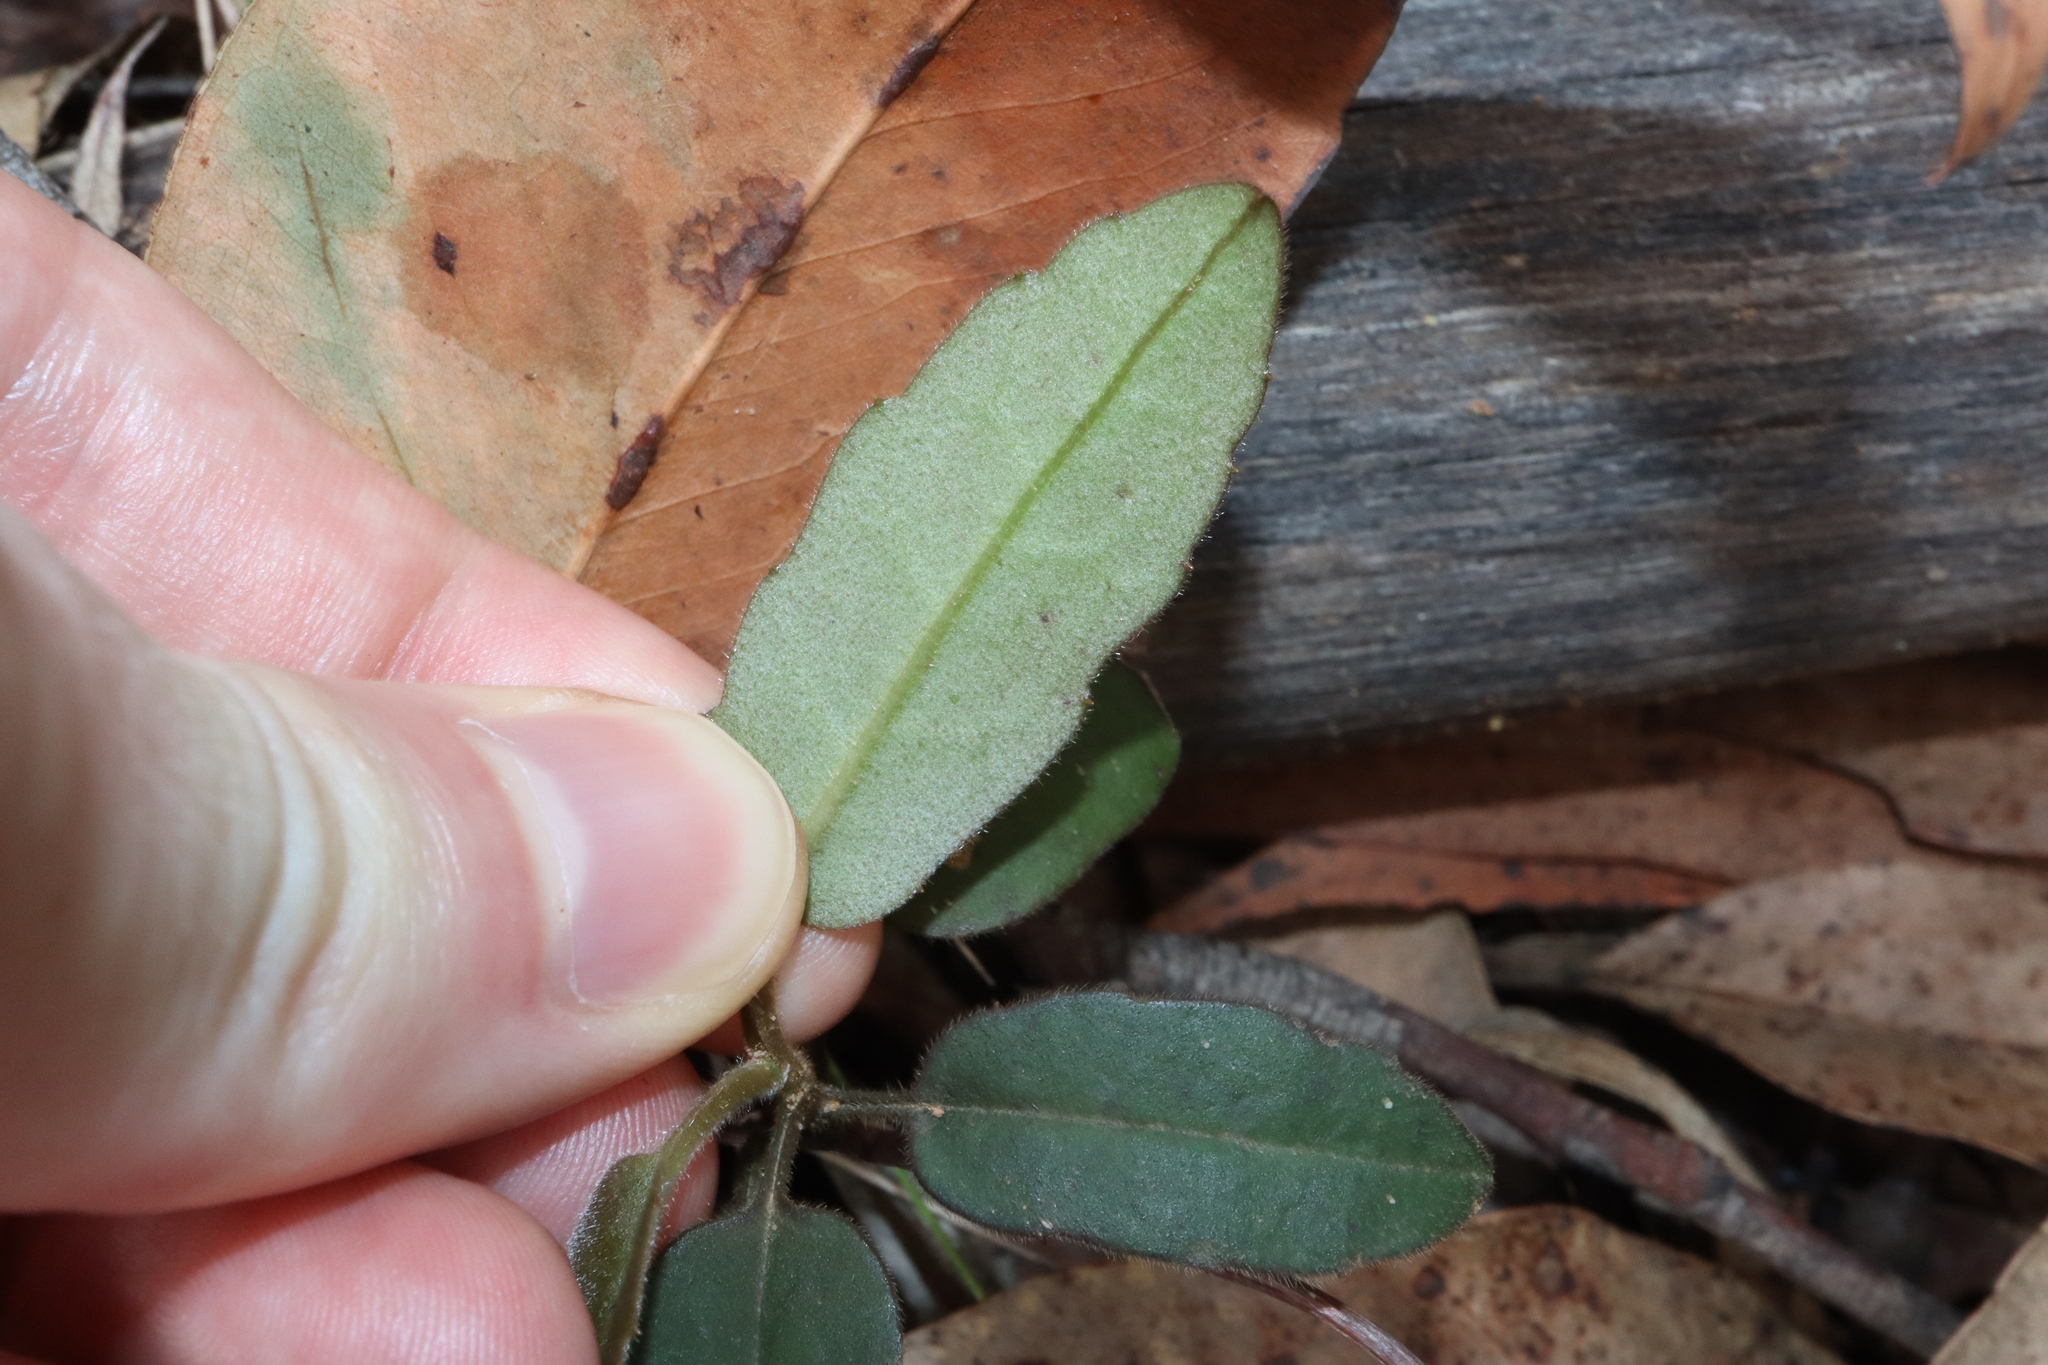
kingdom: Plantae
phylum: Tracheophyta
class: Magnoliopsida
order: Dilleniales
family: Dilleniaceae
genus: Hibbertia
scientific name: Hibbertia dentata
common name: Trailing guinea-flower
